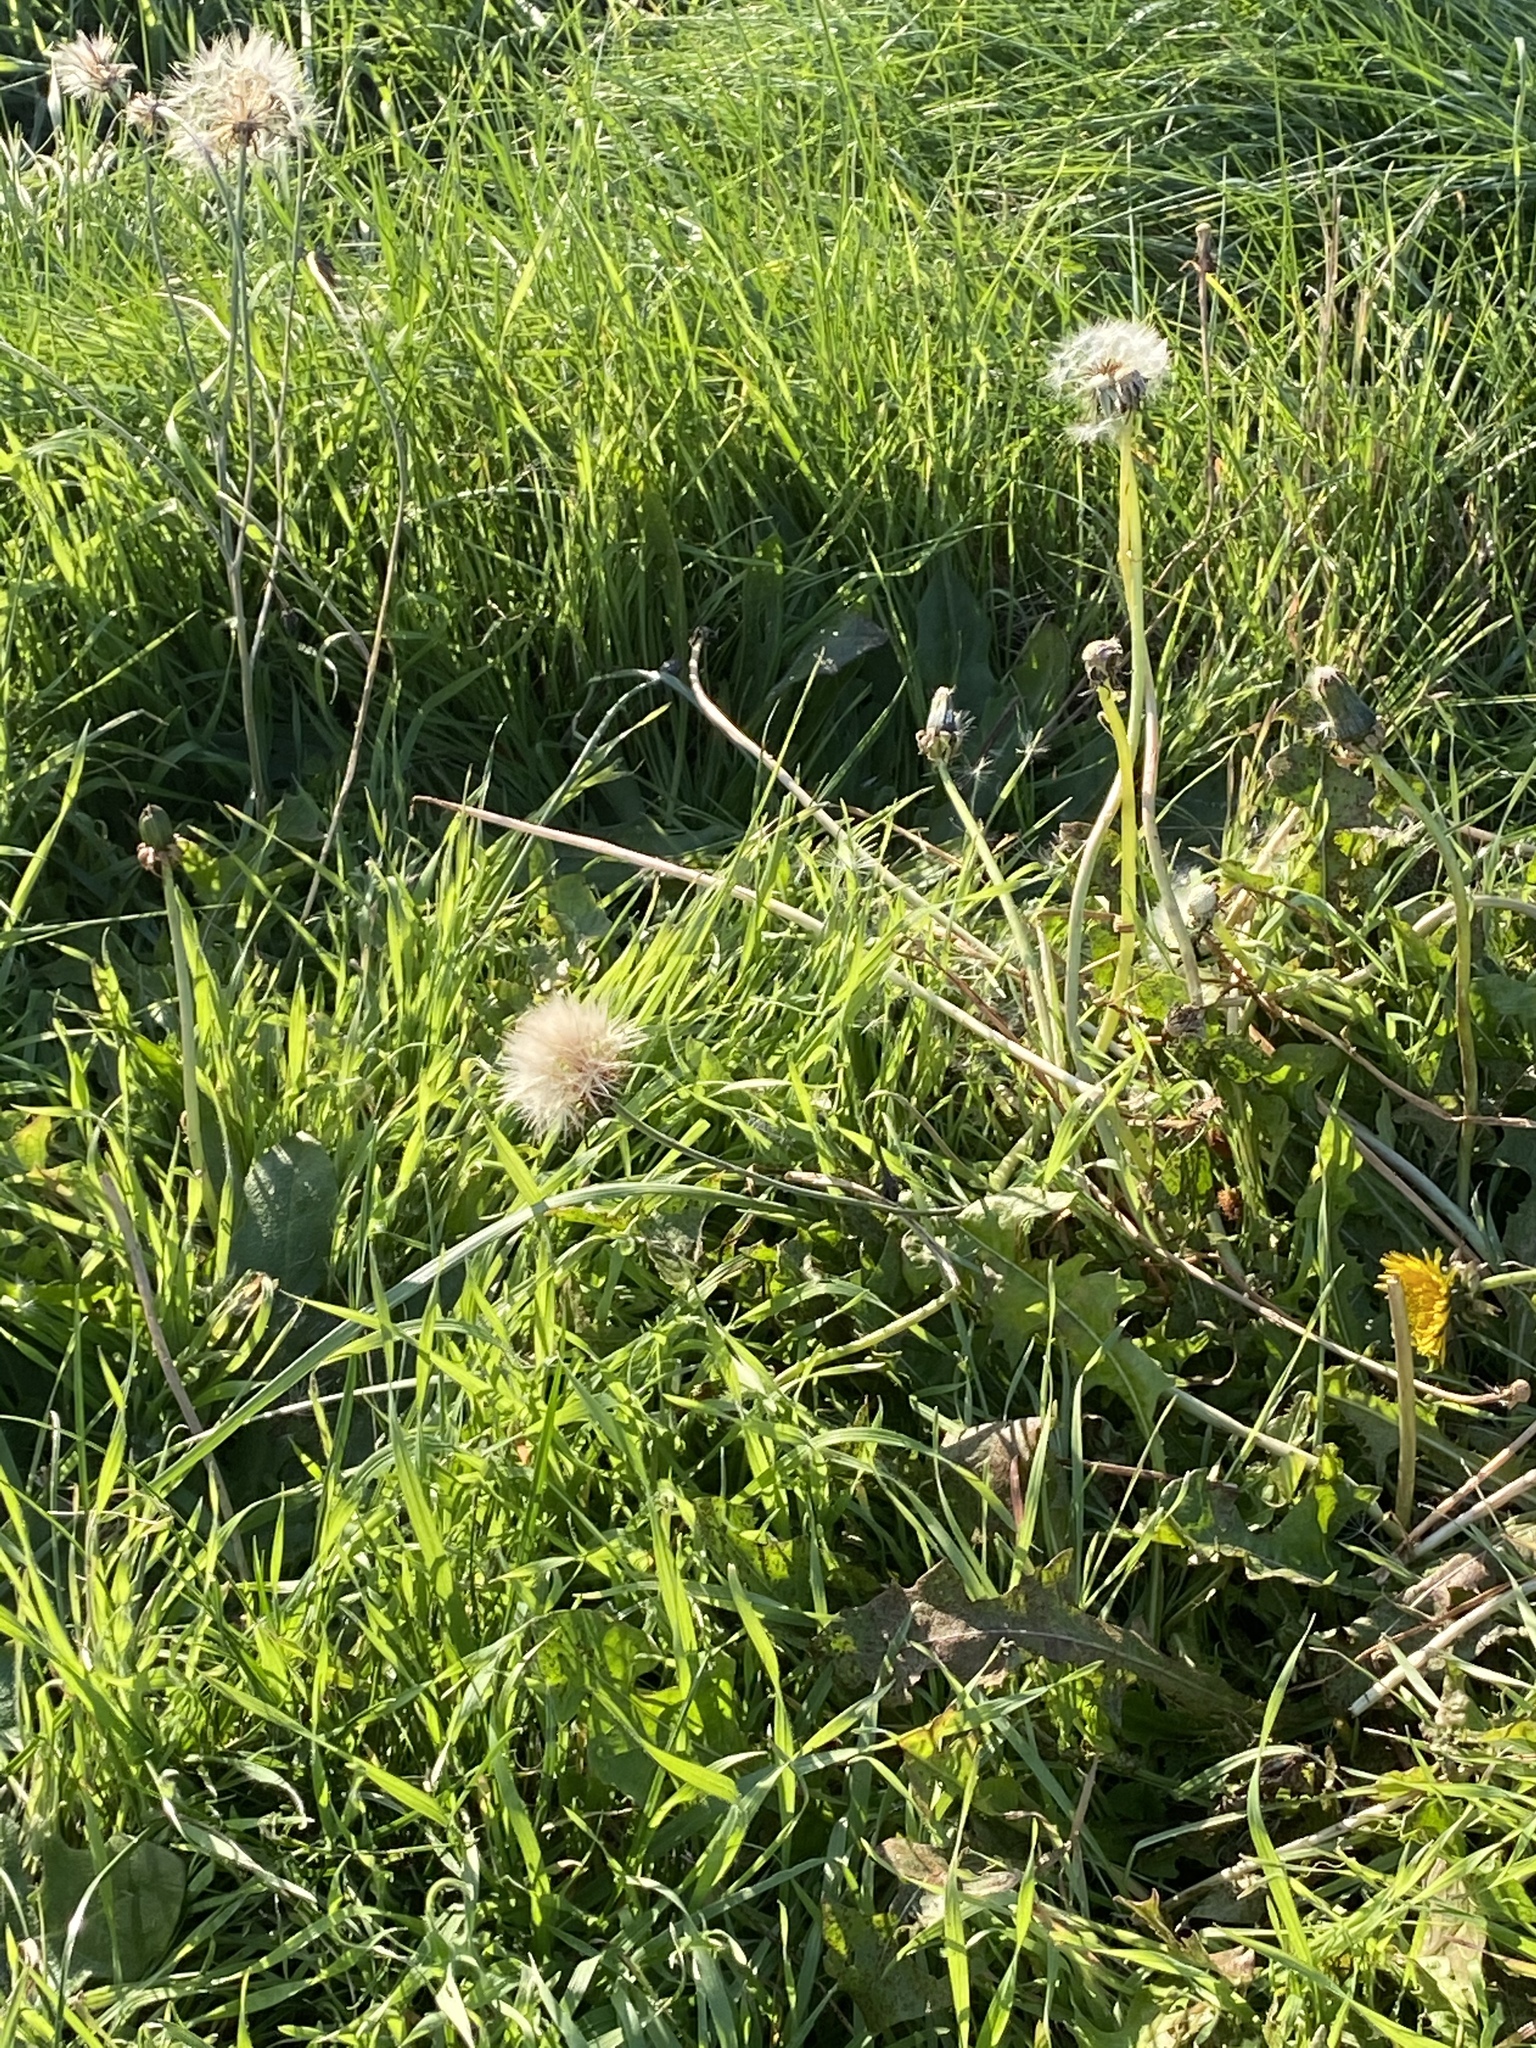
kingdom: Plantae
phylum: Tracheophyta
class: Magnoliopsida
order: Asterales
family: Asteraceae
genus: Taraxacum
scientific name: Taraxacum officinale
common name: Common dandelion
